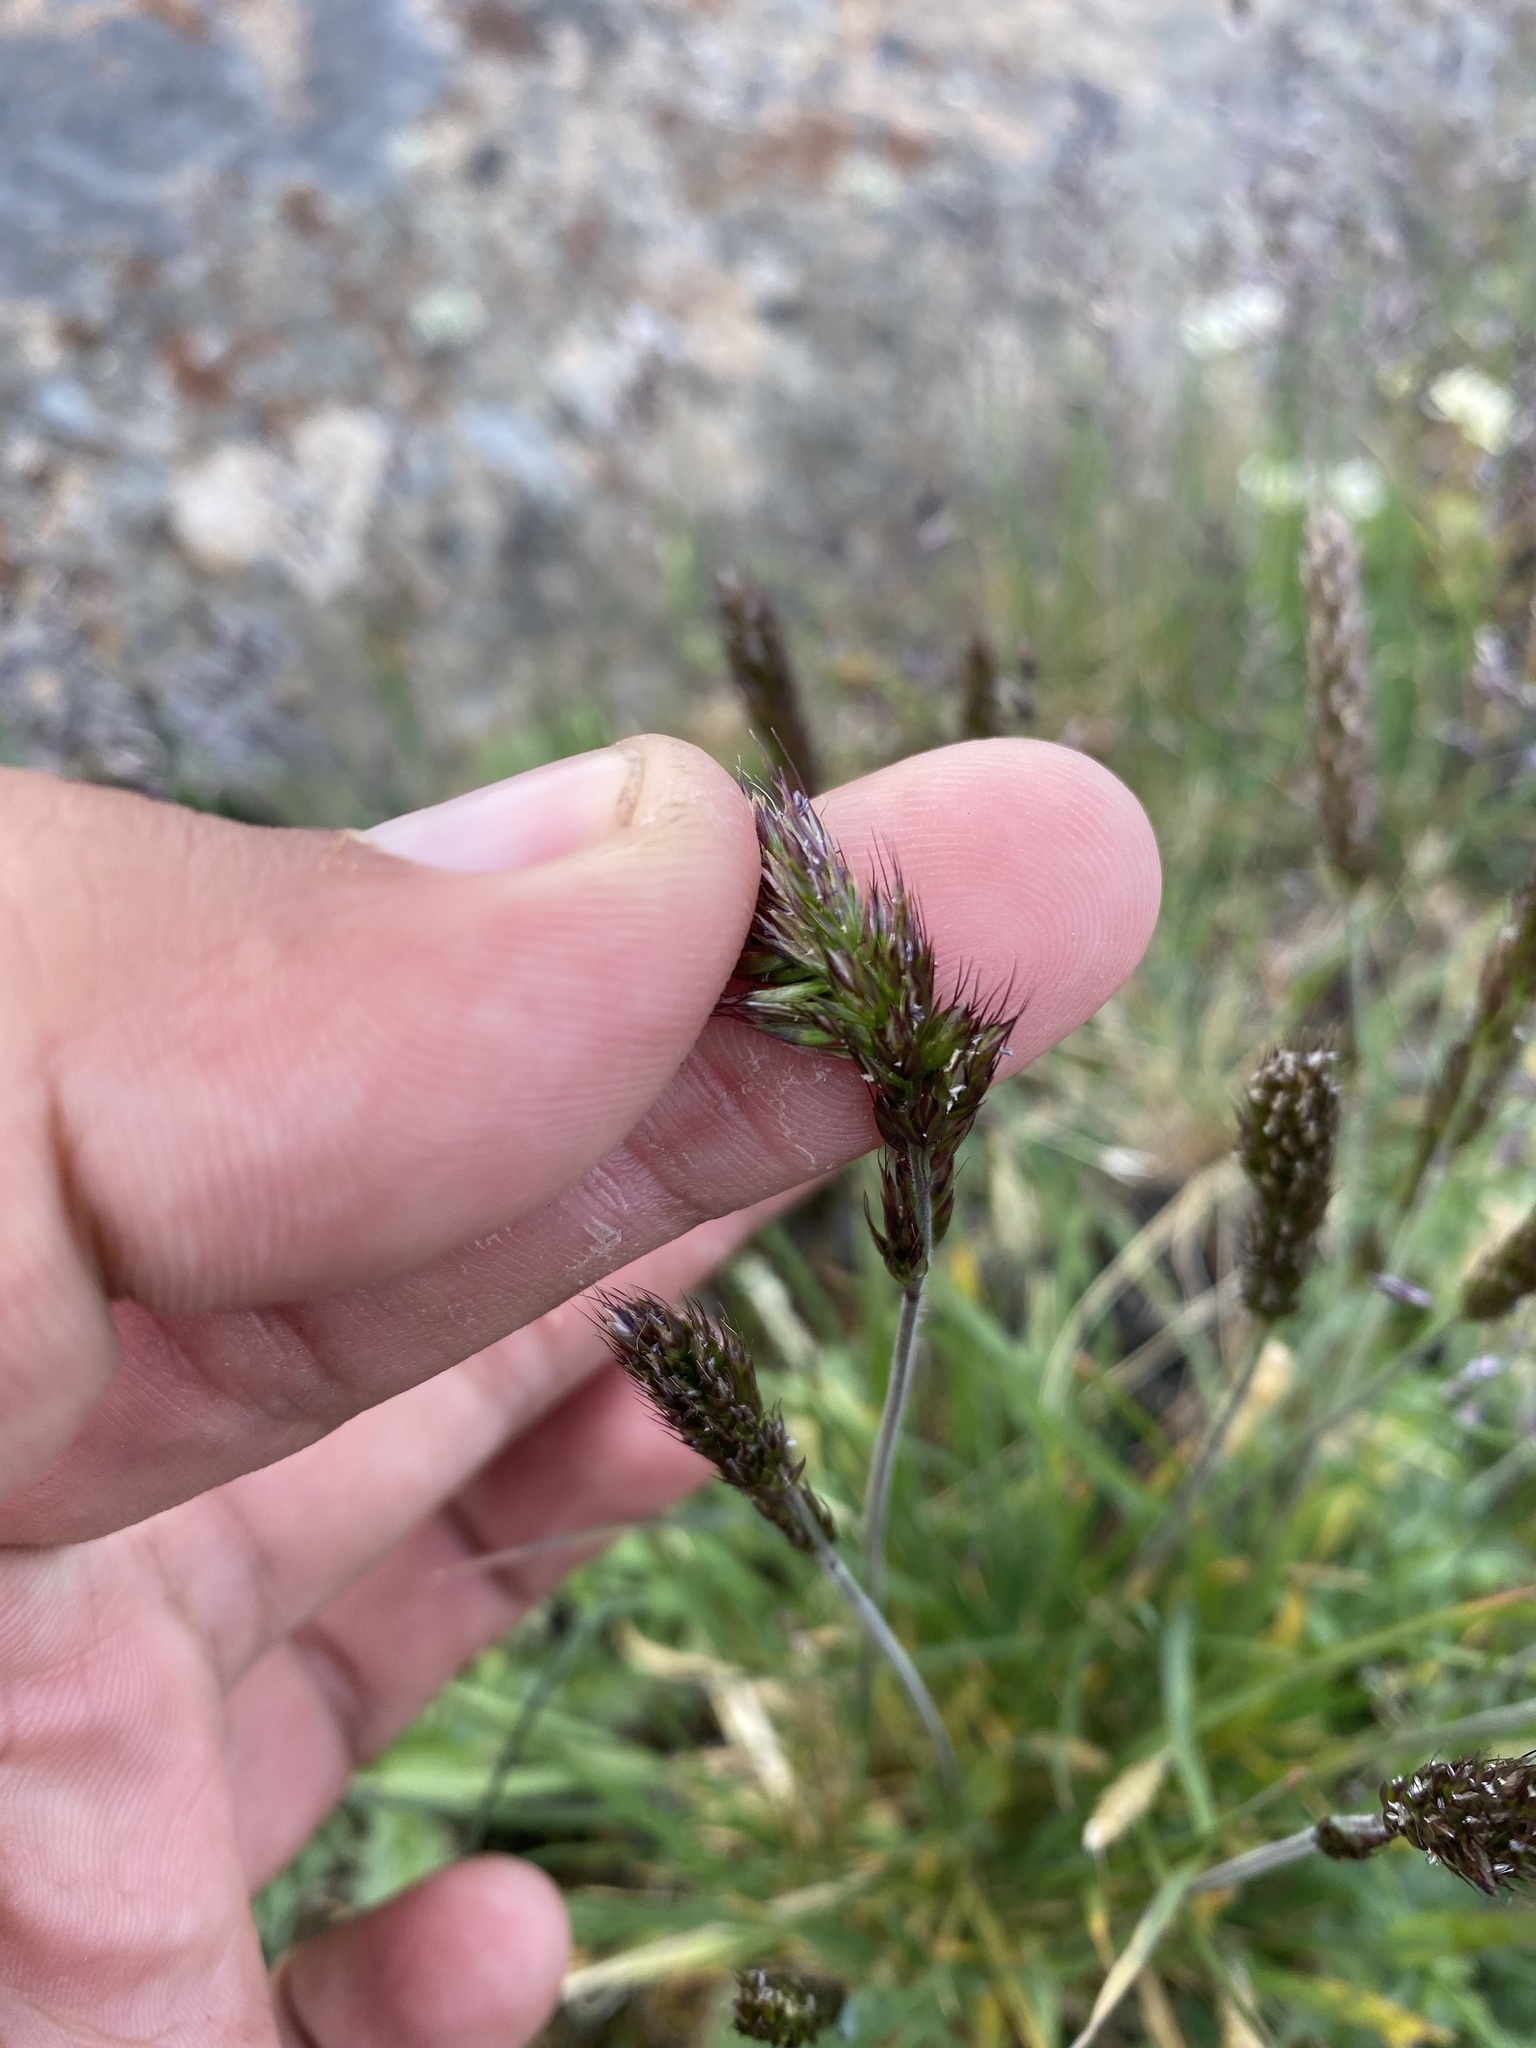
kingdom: Plantae
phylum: Tracheophyta
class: Liliopsida
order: Poales
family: Poaceae
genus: Koeleria
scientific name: Koeleria spicata
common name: Mountain trisetum
